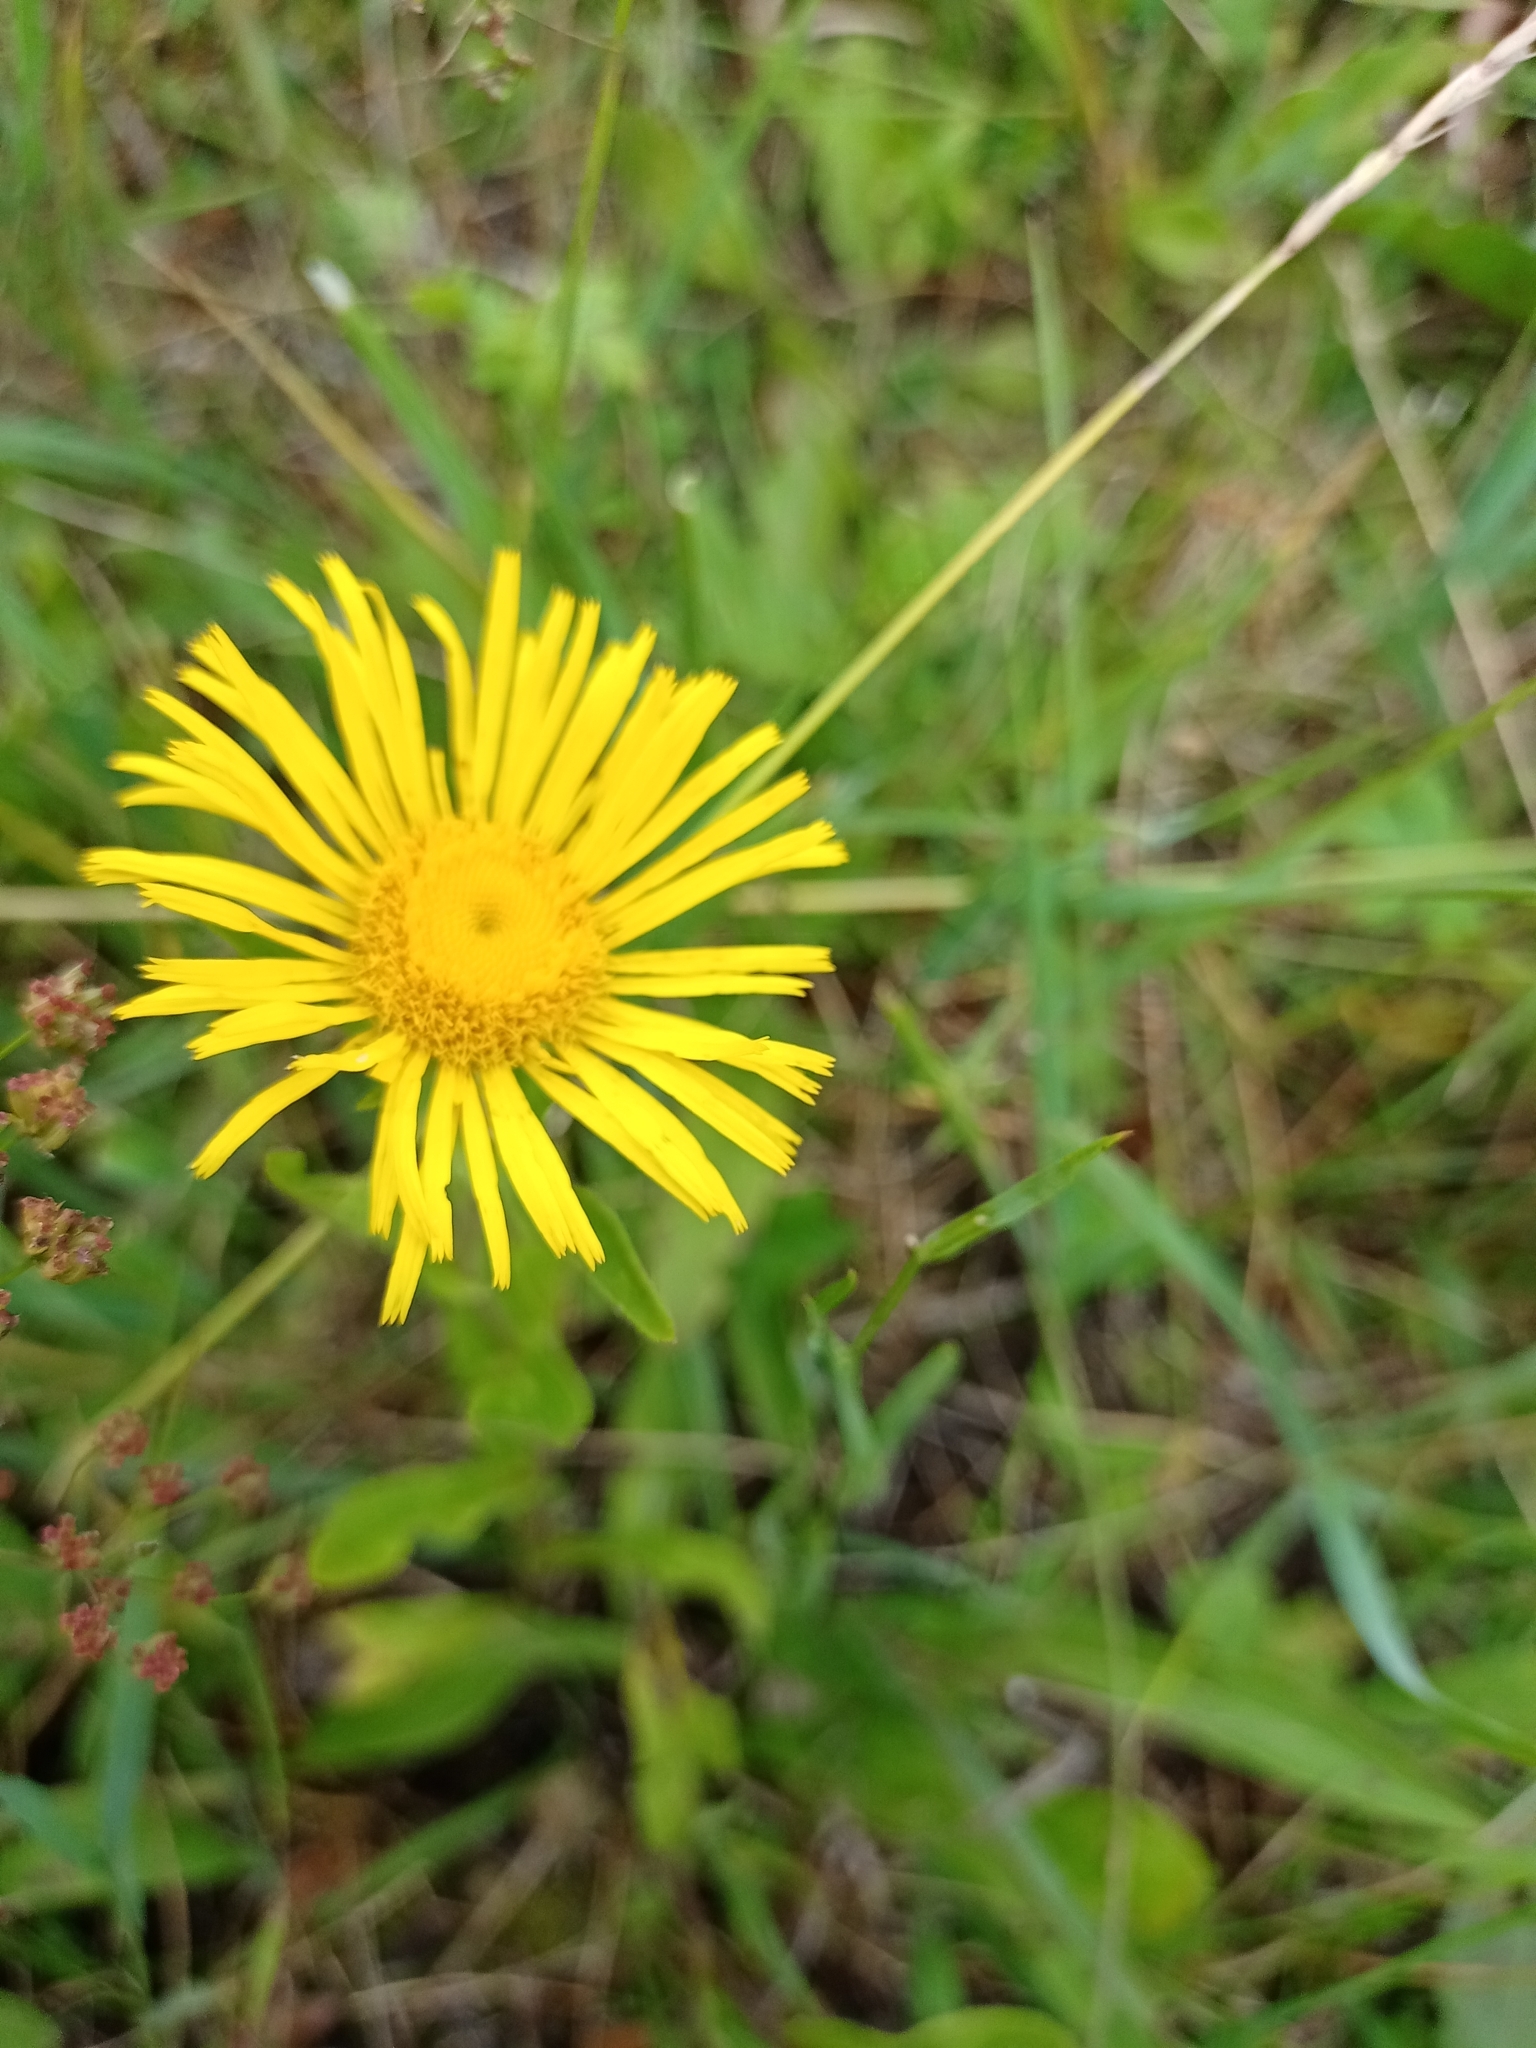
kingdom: Plantae
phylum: Tracheophyta
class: Magnoliopsida
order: Asterales
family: Asteraceae
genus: Pentanema
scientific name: Pentanema salicinum
